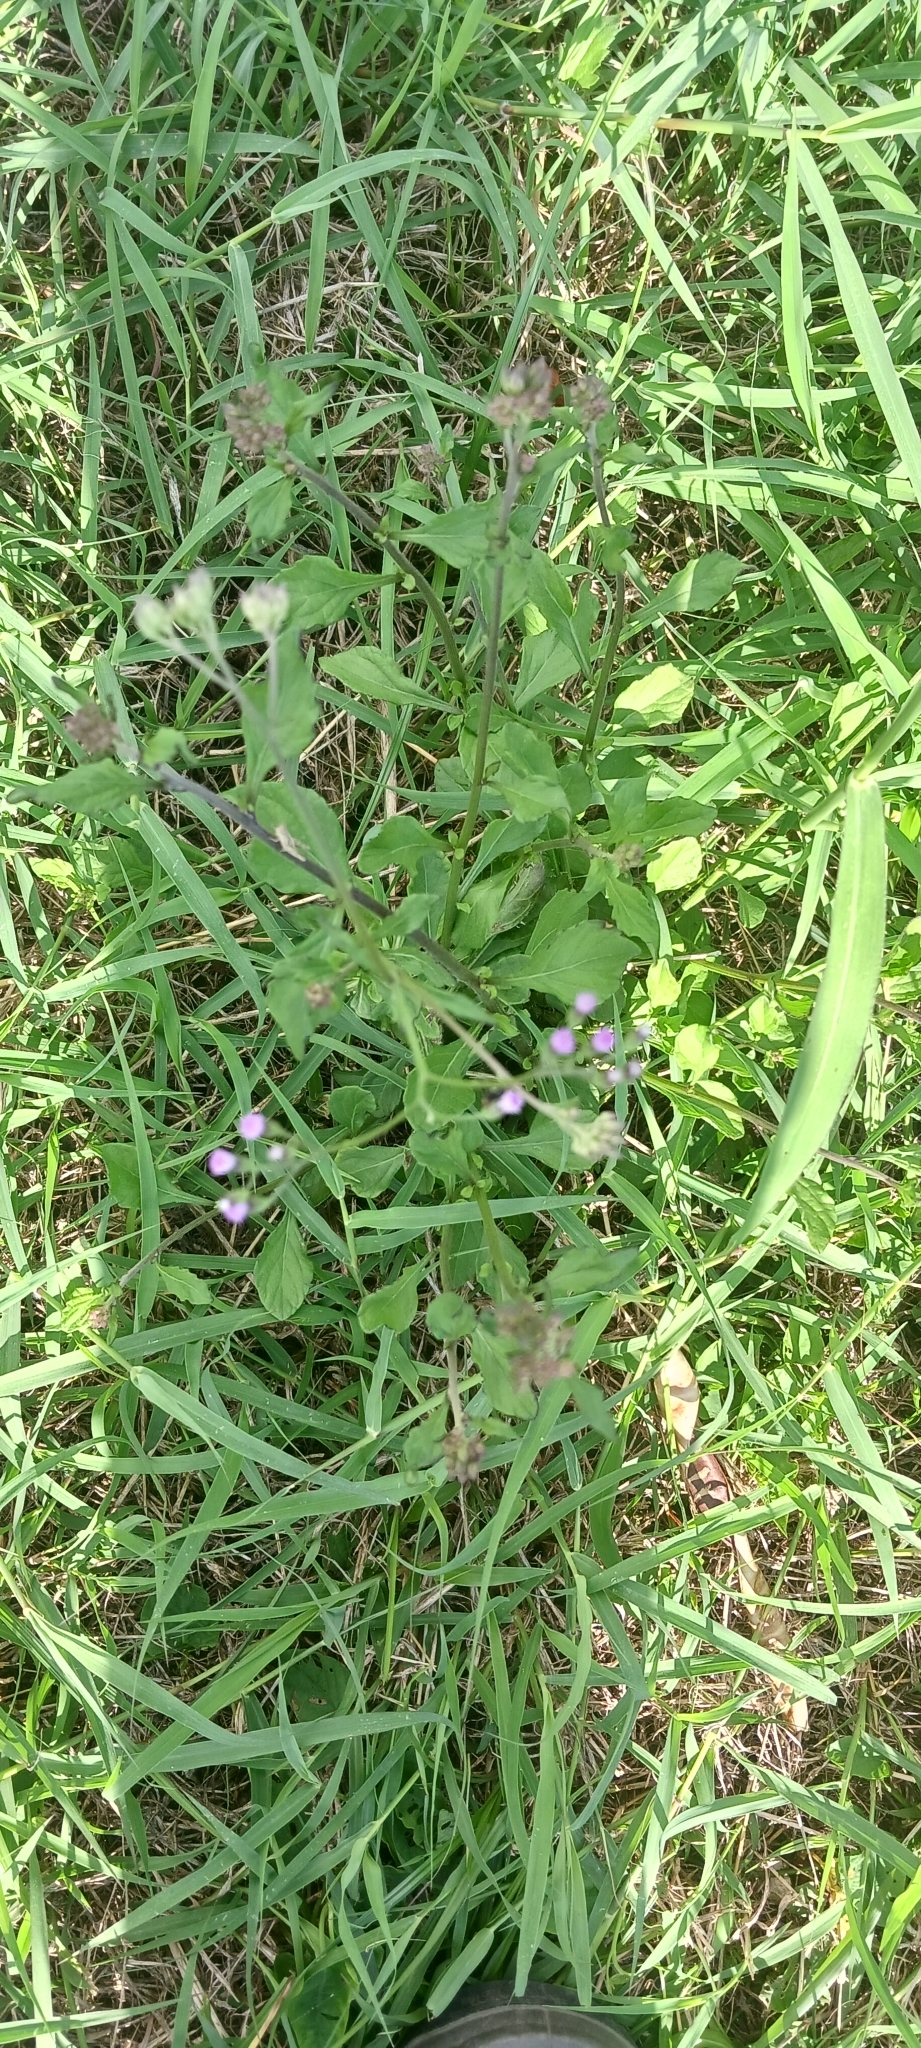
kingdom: Plantae
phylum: Tracheophyta
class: Magnoliopsida
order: Asterales
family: Asteraceae
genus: Cyanthillium
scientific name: Cyanthillium cinereum
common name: Little ironweed
